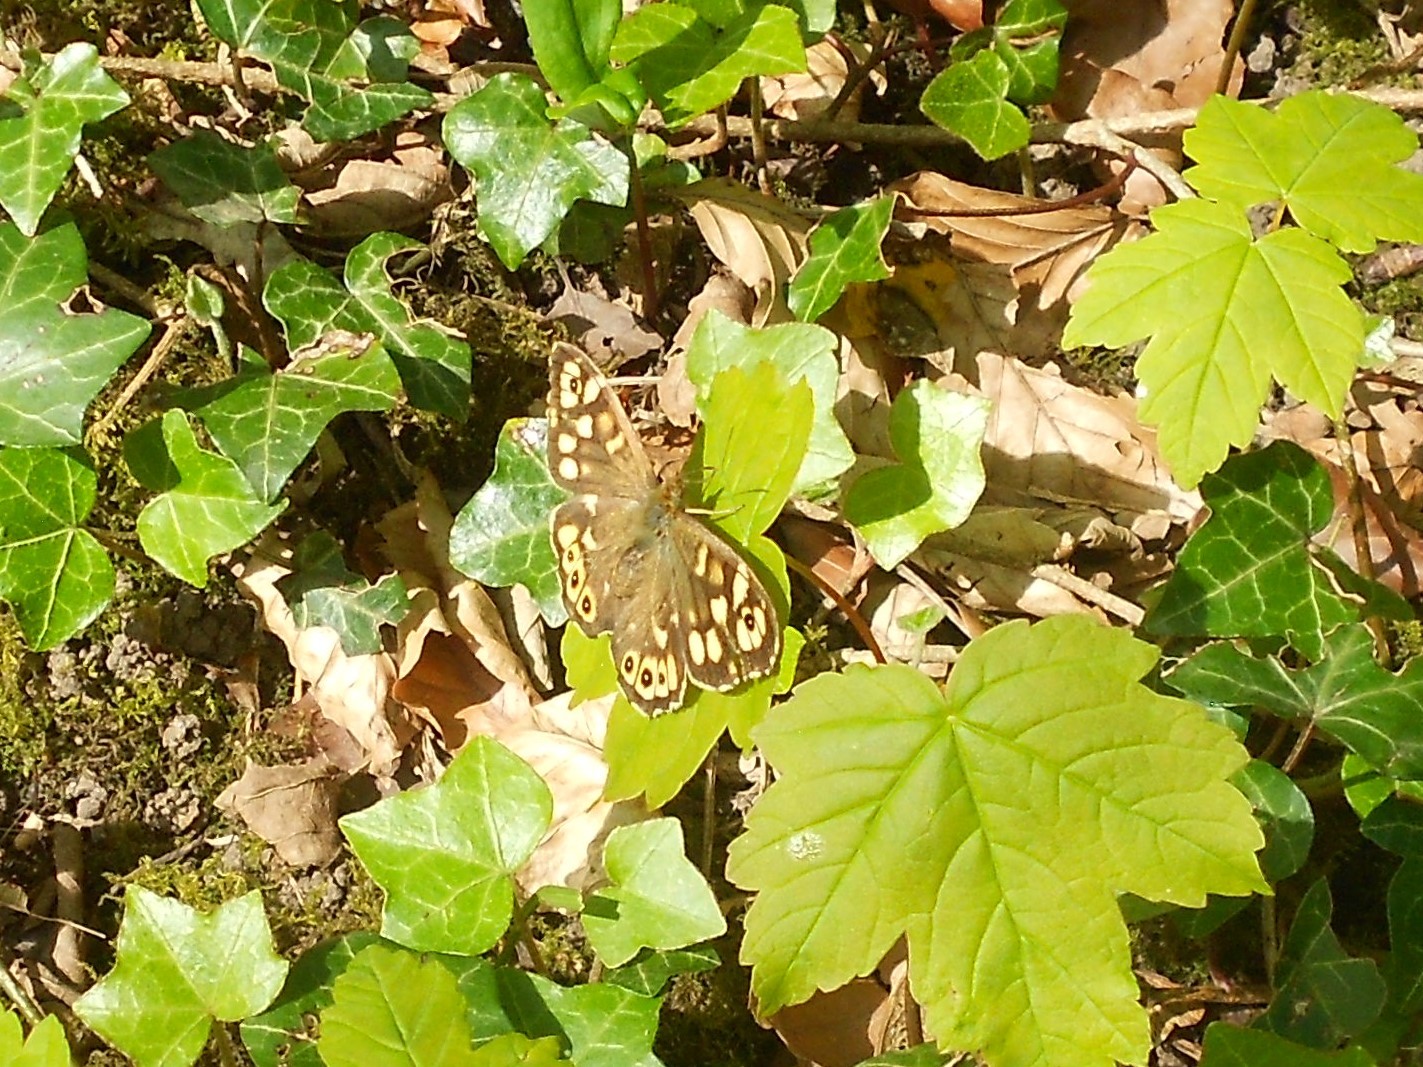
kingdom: Animalia
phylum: Arthropoda
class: Insecta
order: Lepidoptera
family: Nymphalidae
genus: Pararge
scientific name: Pararge aegeria
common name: Speckled wood
